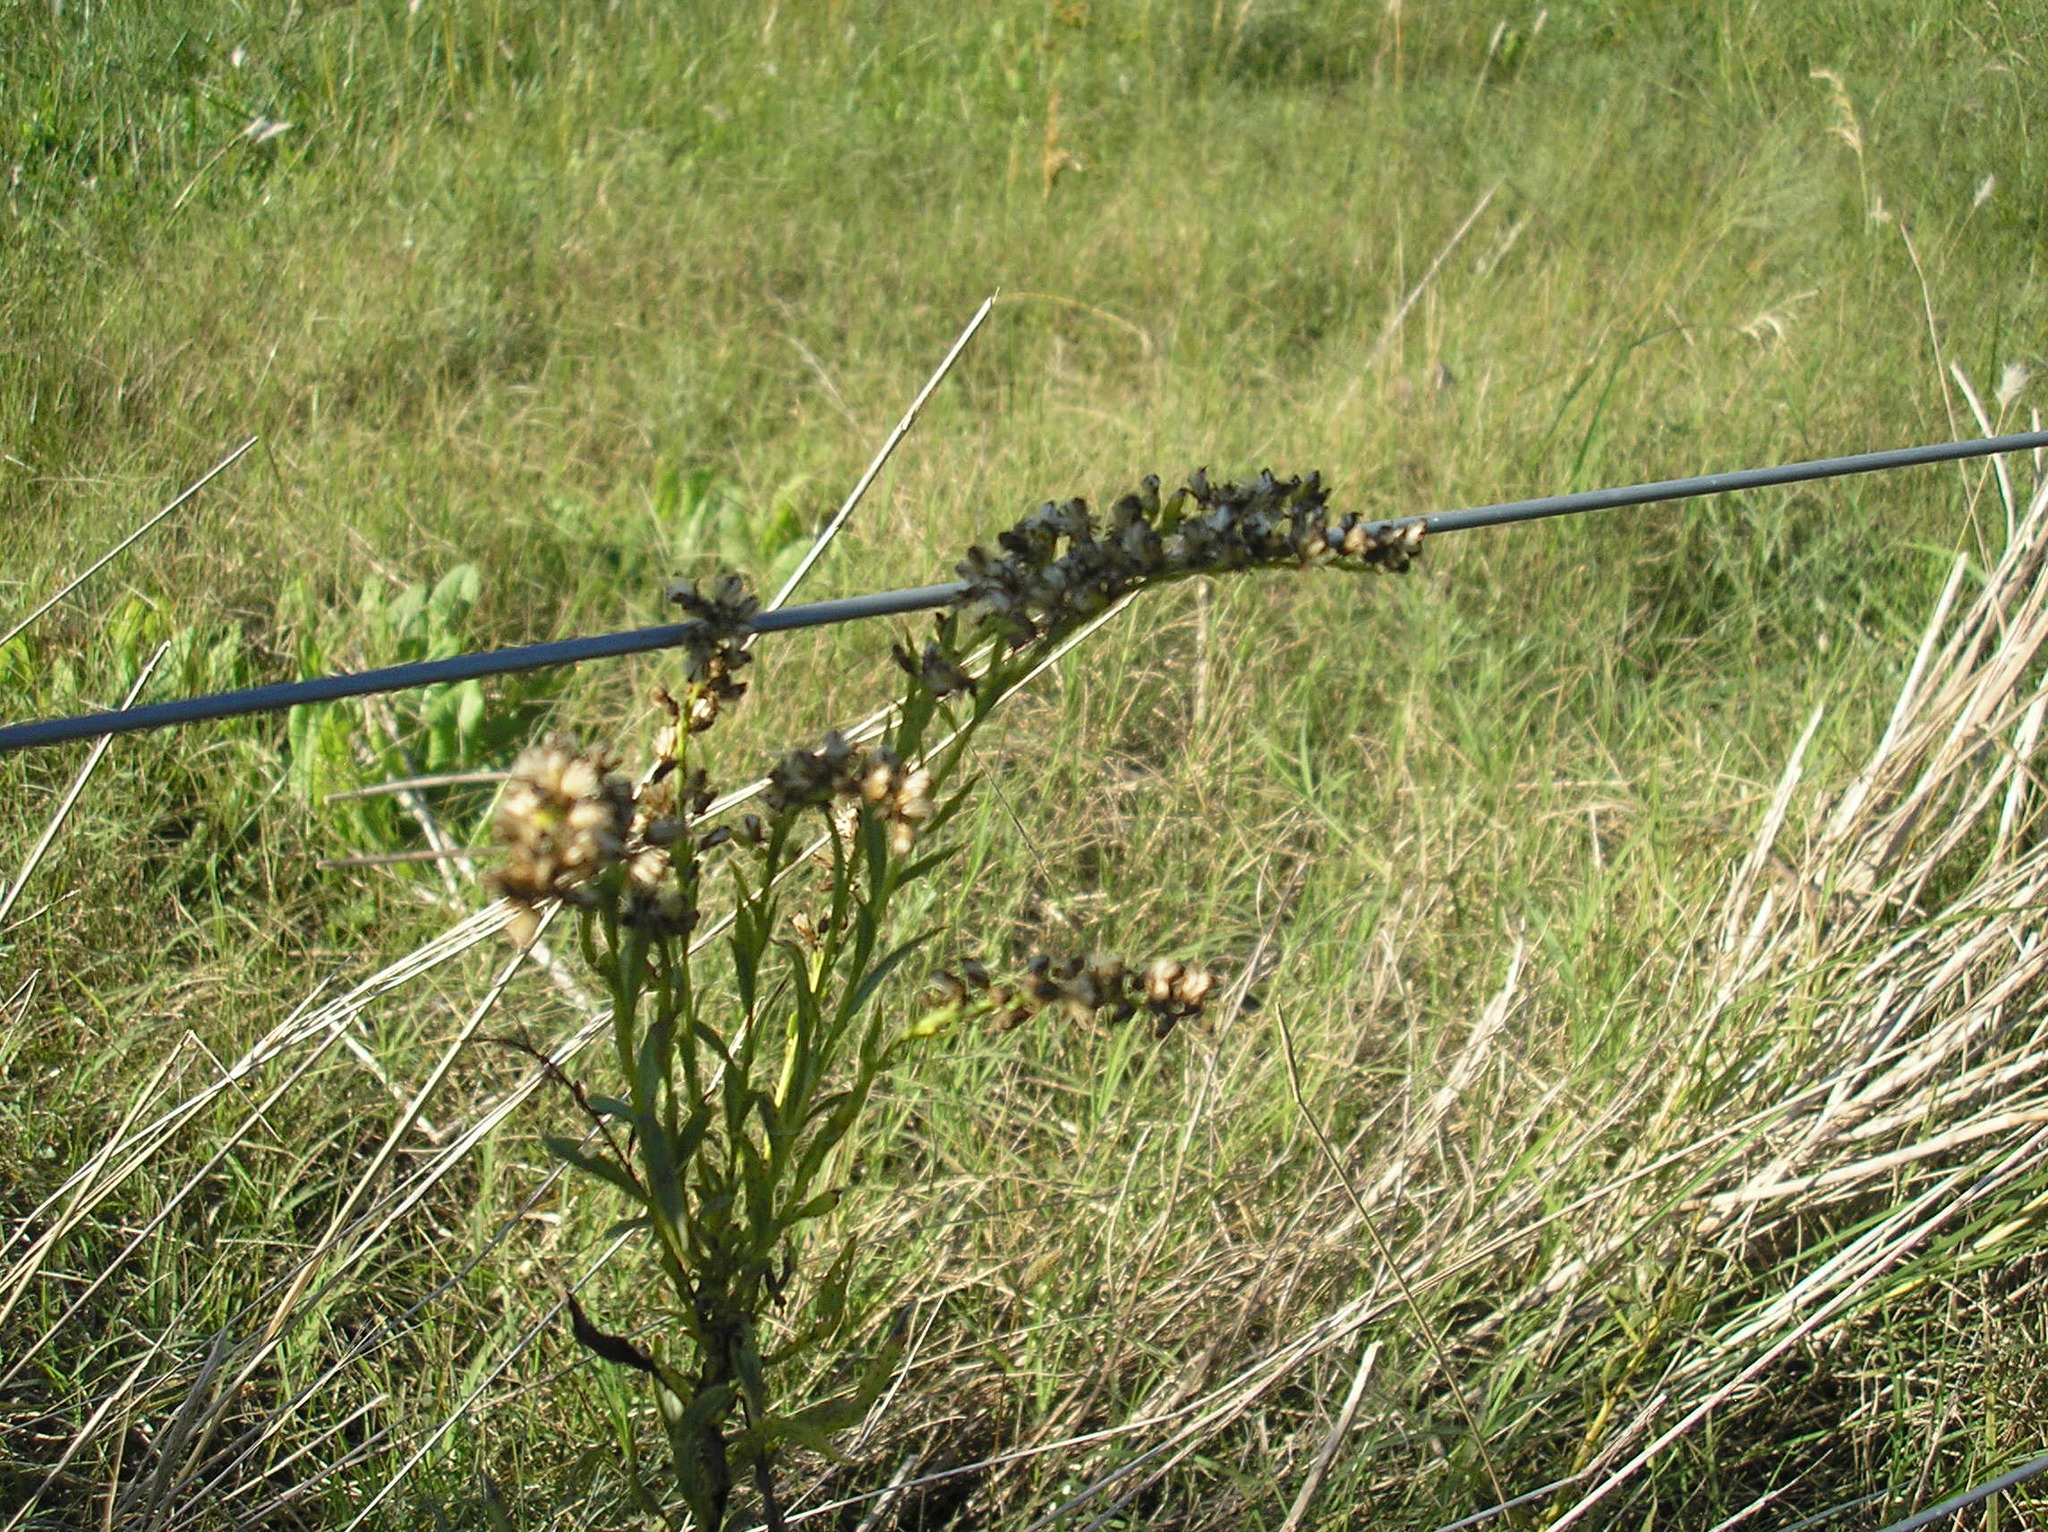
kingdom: Plantae
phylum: Tracheophyta
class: Magnoliopsida
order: Asterales
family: Asteraceae
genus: Solidago
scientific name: Solidago chilensis
